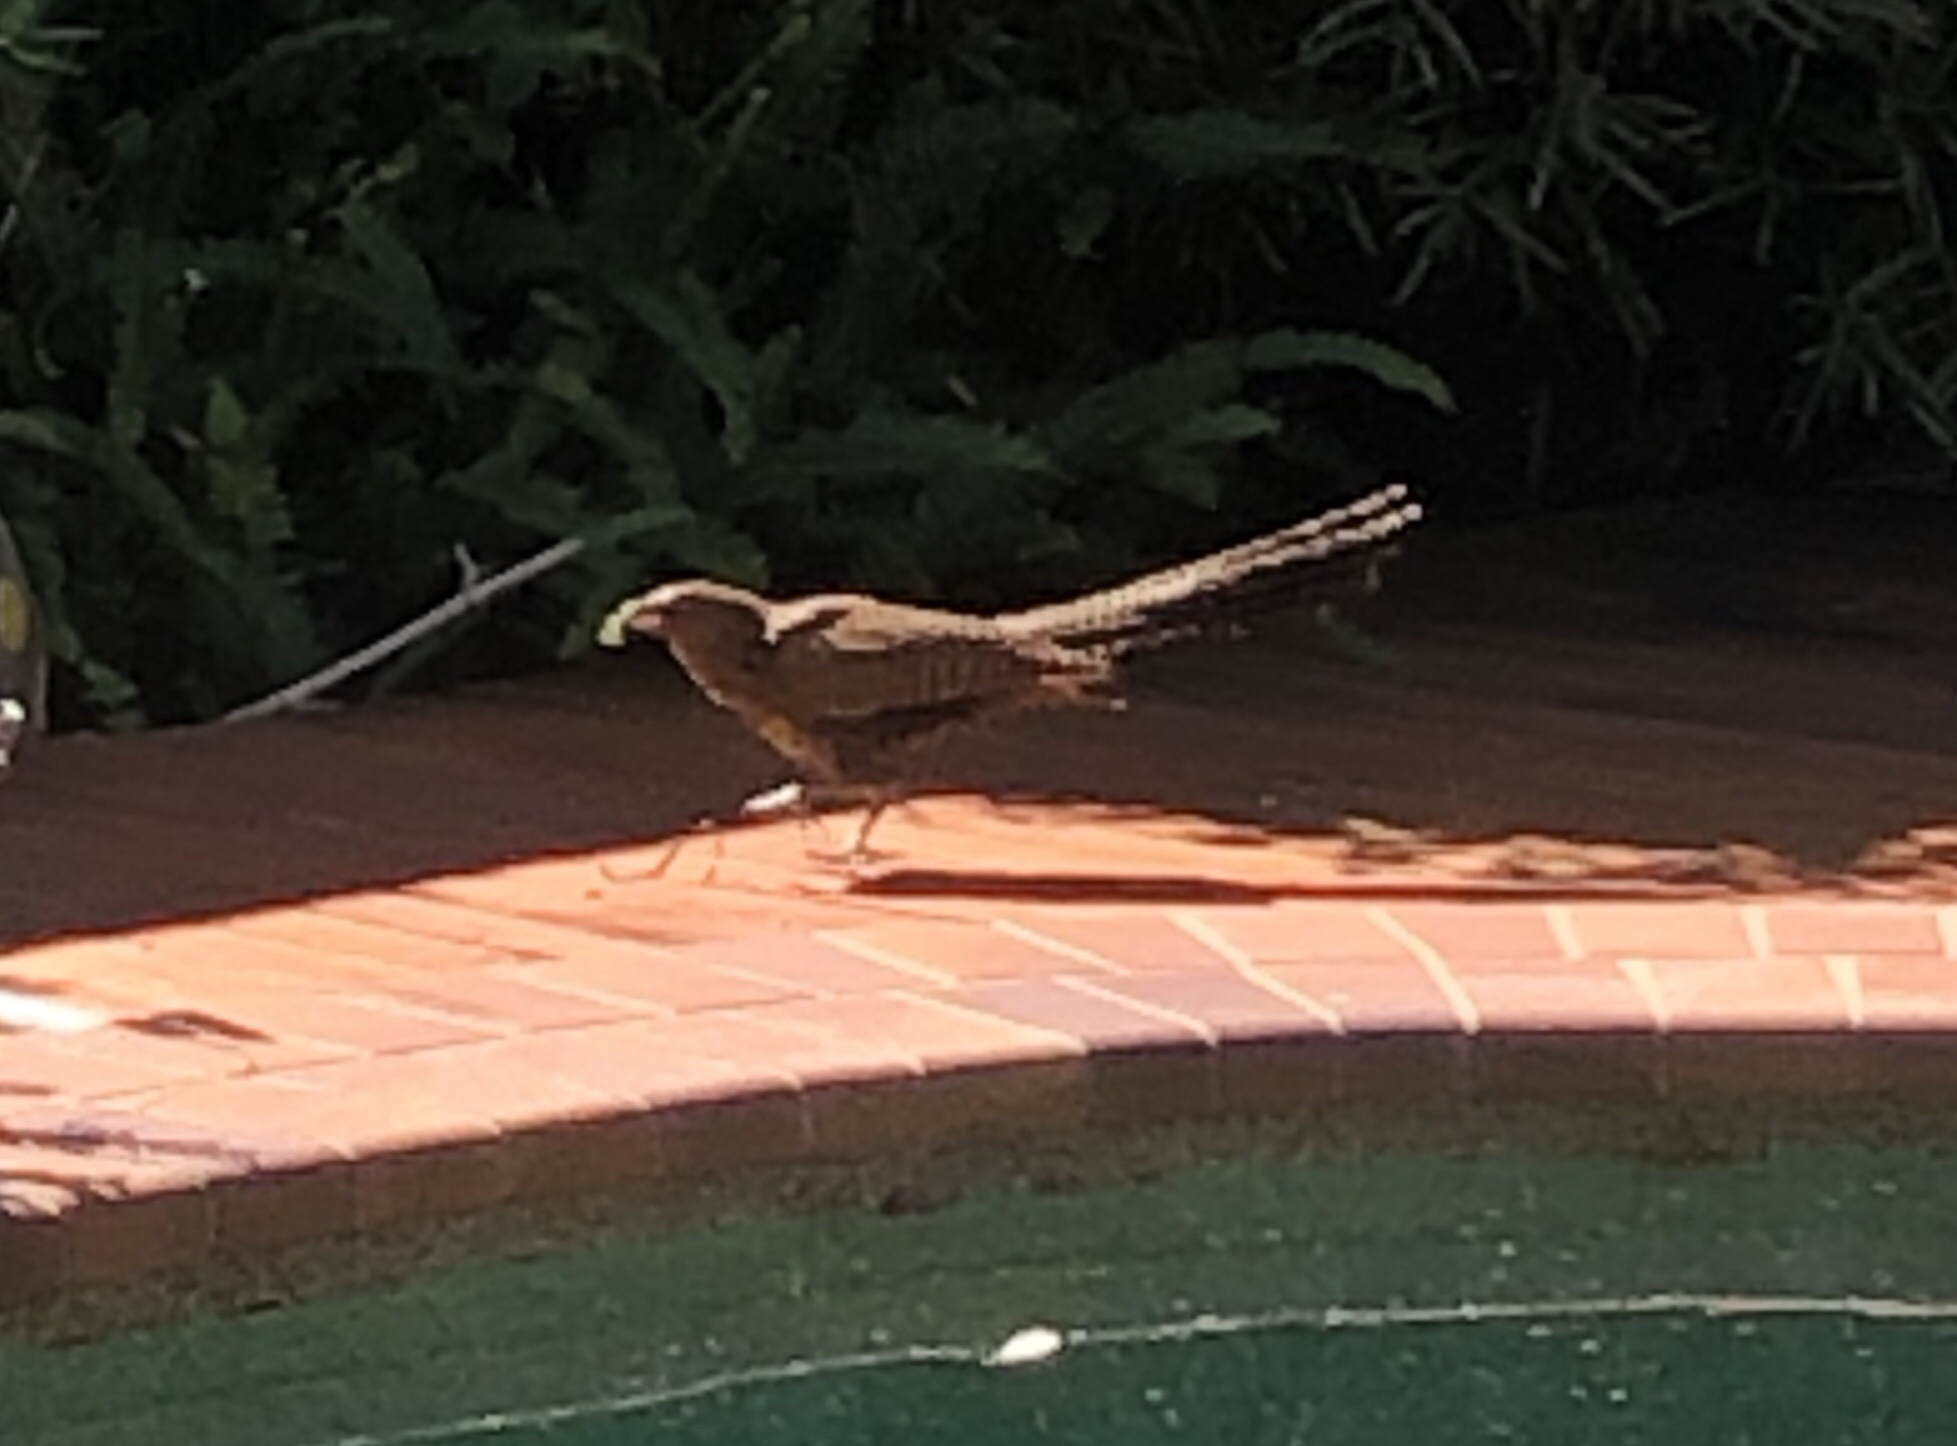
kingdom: Animalia
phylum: Chordata
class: Aves
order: Cuculiformes
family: Cuculidae
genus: Centropus
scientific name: Centropus phasianinus
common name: Pheasant coucal
